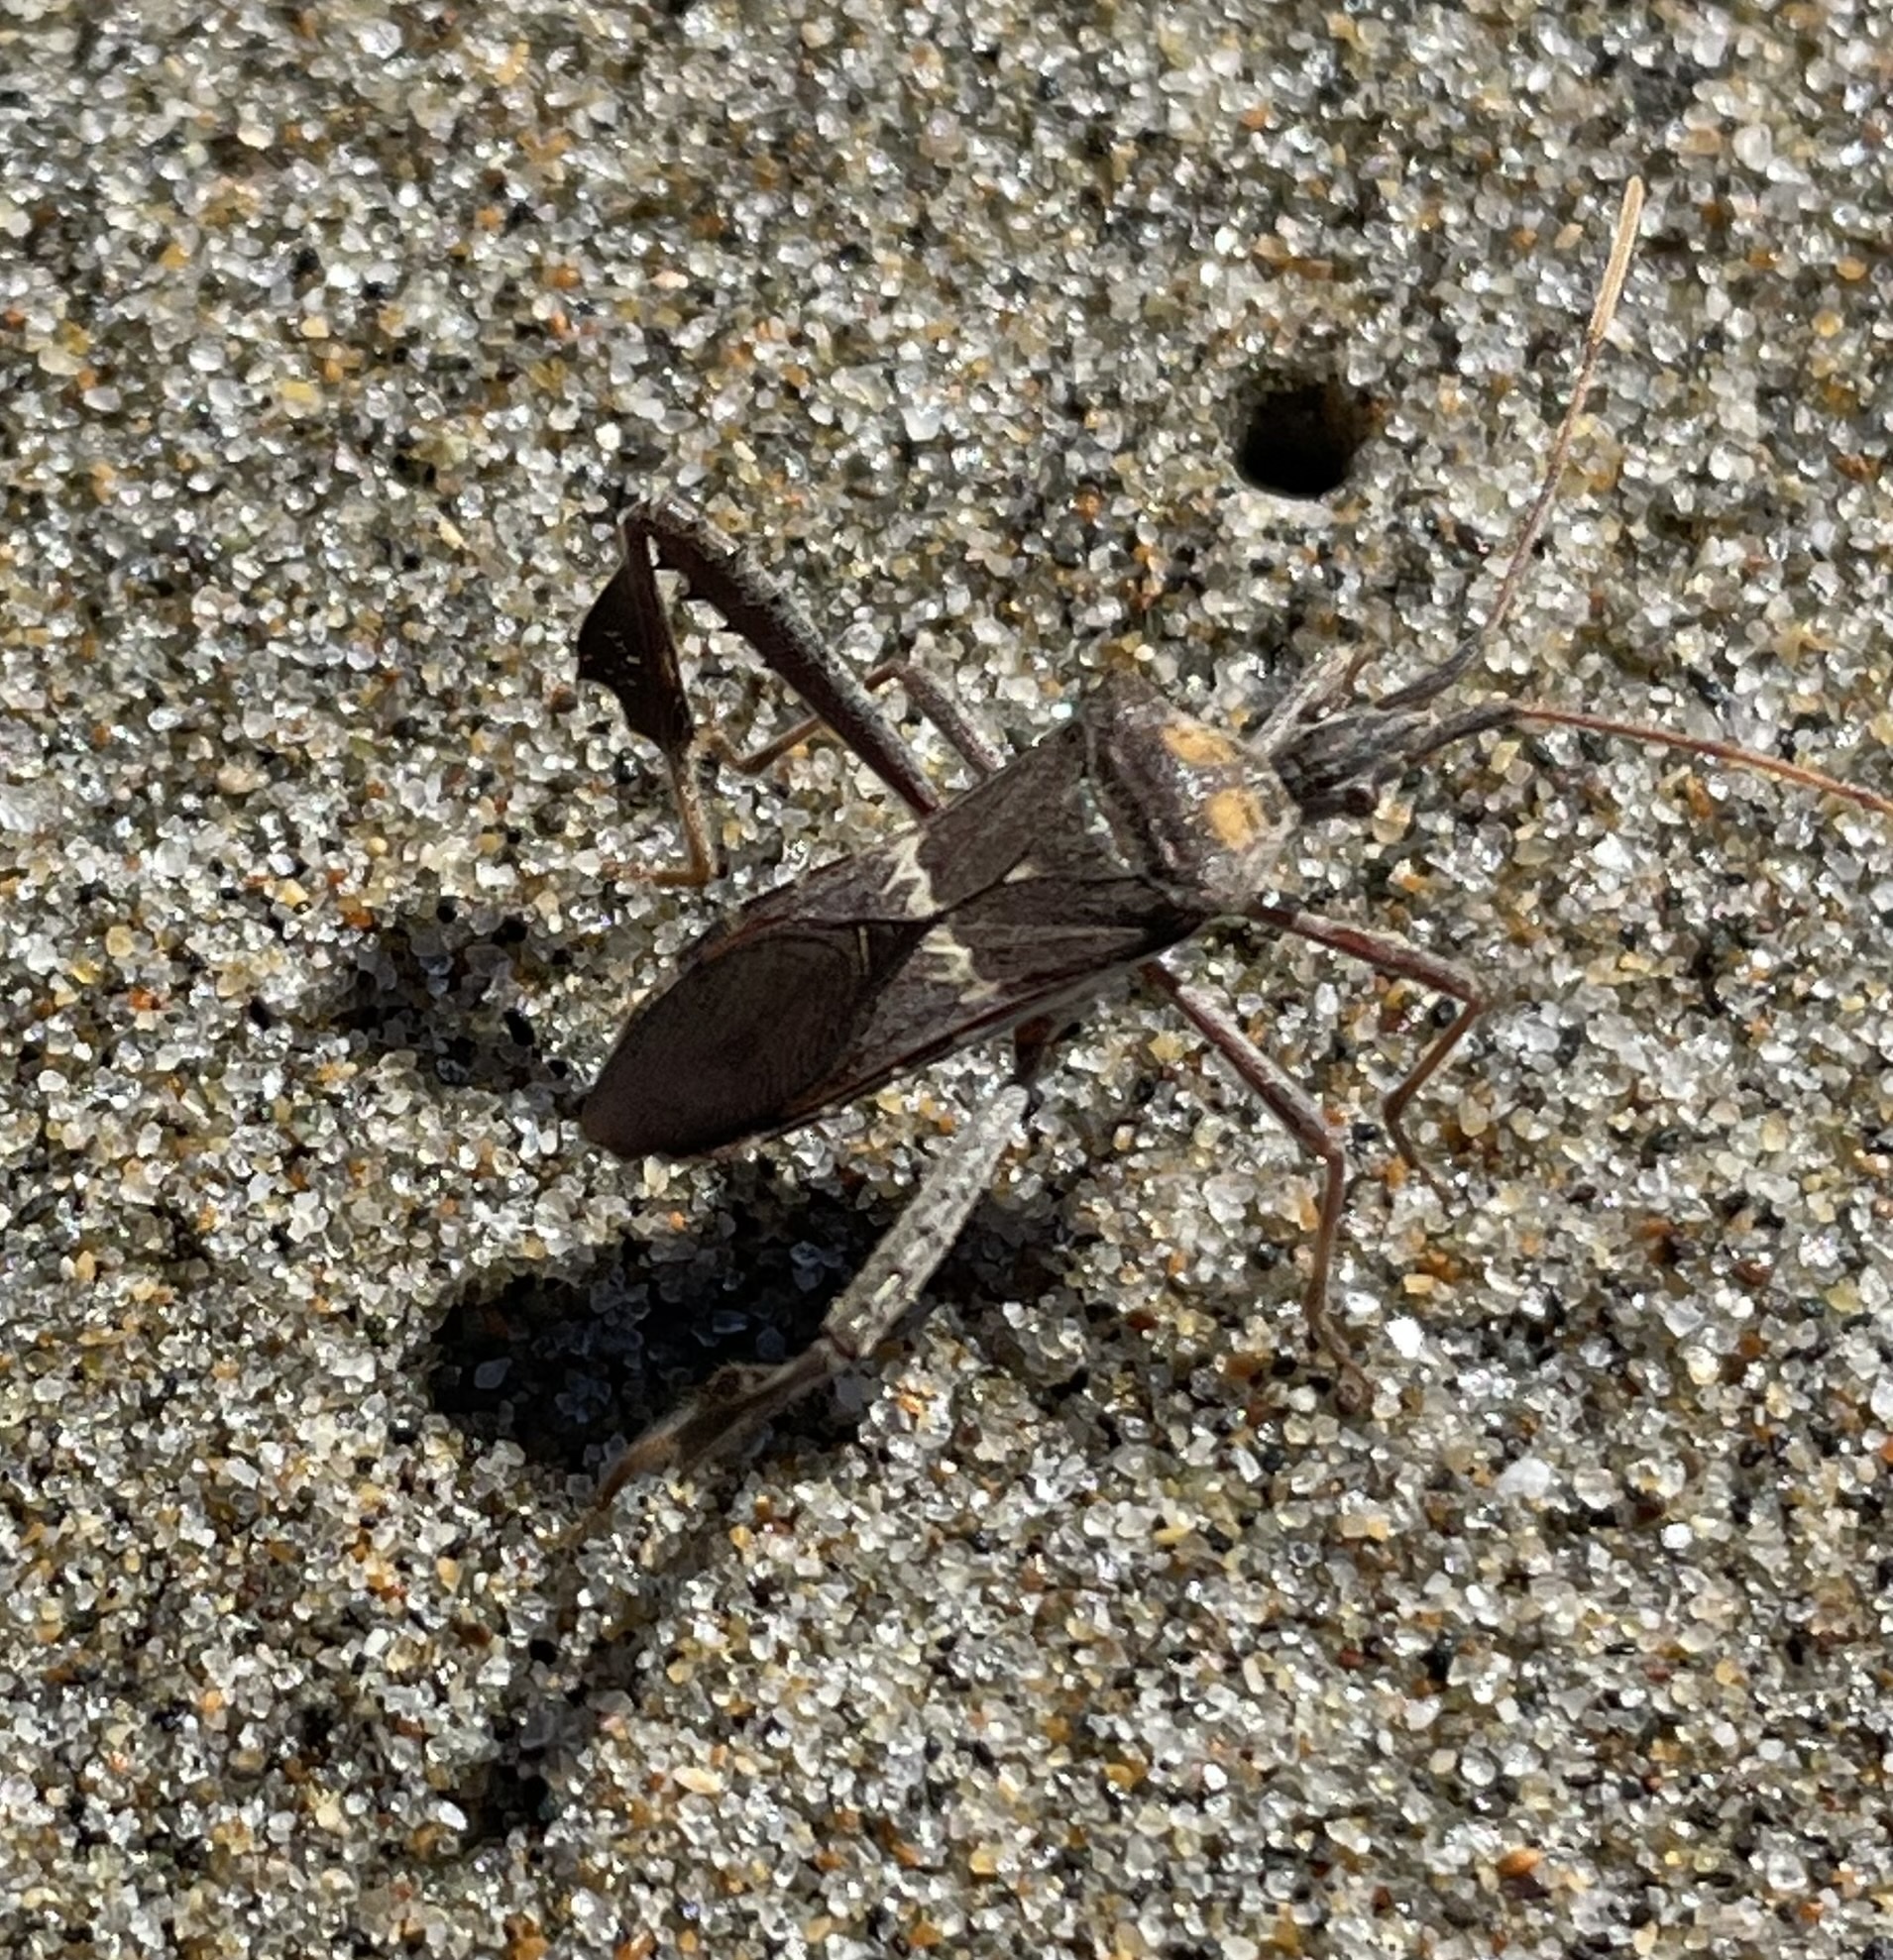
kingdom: Animalia
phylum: Arthropoda
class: Insecta
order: Hemiptera
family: Coreidae
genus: Leptoglossus
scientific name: Leptoglossus zonatus
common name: Large-legged bug
